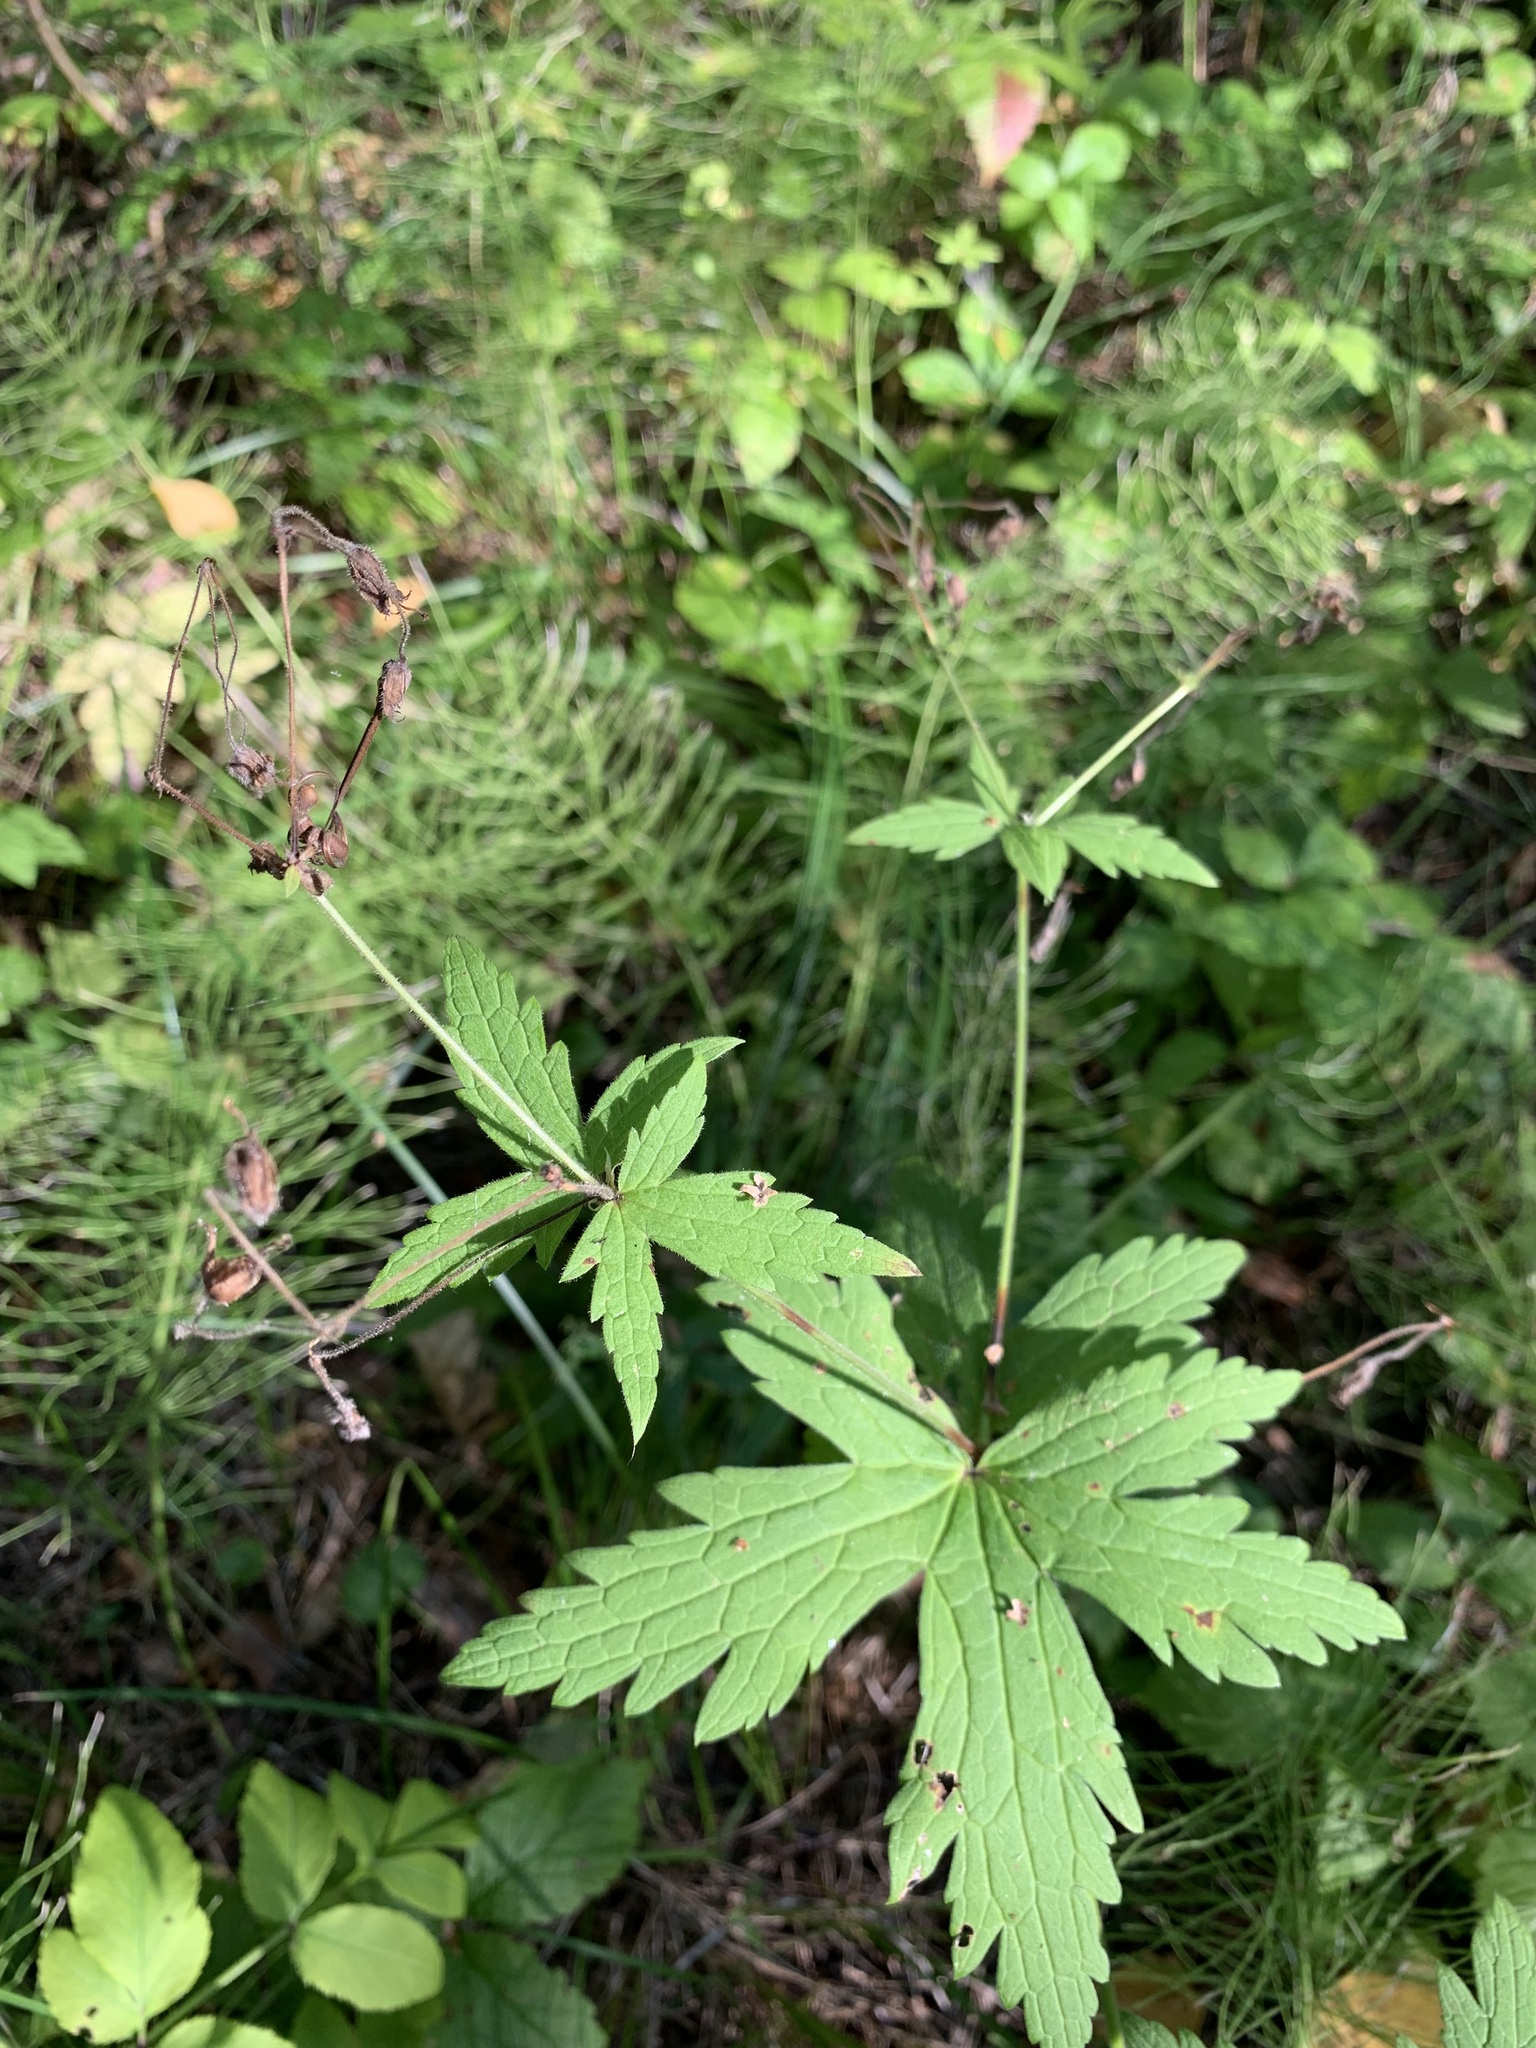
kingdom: Plantae
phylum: Tracheophyta
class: Magnoliopsida
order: Geraniales
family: Geraniaceae
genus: Geranium
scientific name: Geranium sylvaticum
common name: Wood crane's-bill
